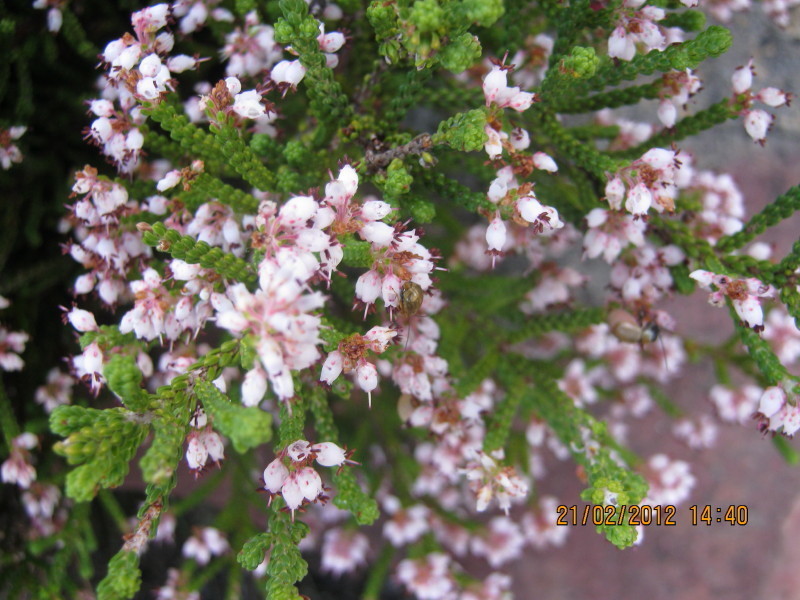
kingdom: Plantae
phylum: Tracheophyta
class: Magnoliopsida
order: Ericales
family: Ericaceae
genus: Erica
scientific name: Erica petraea
